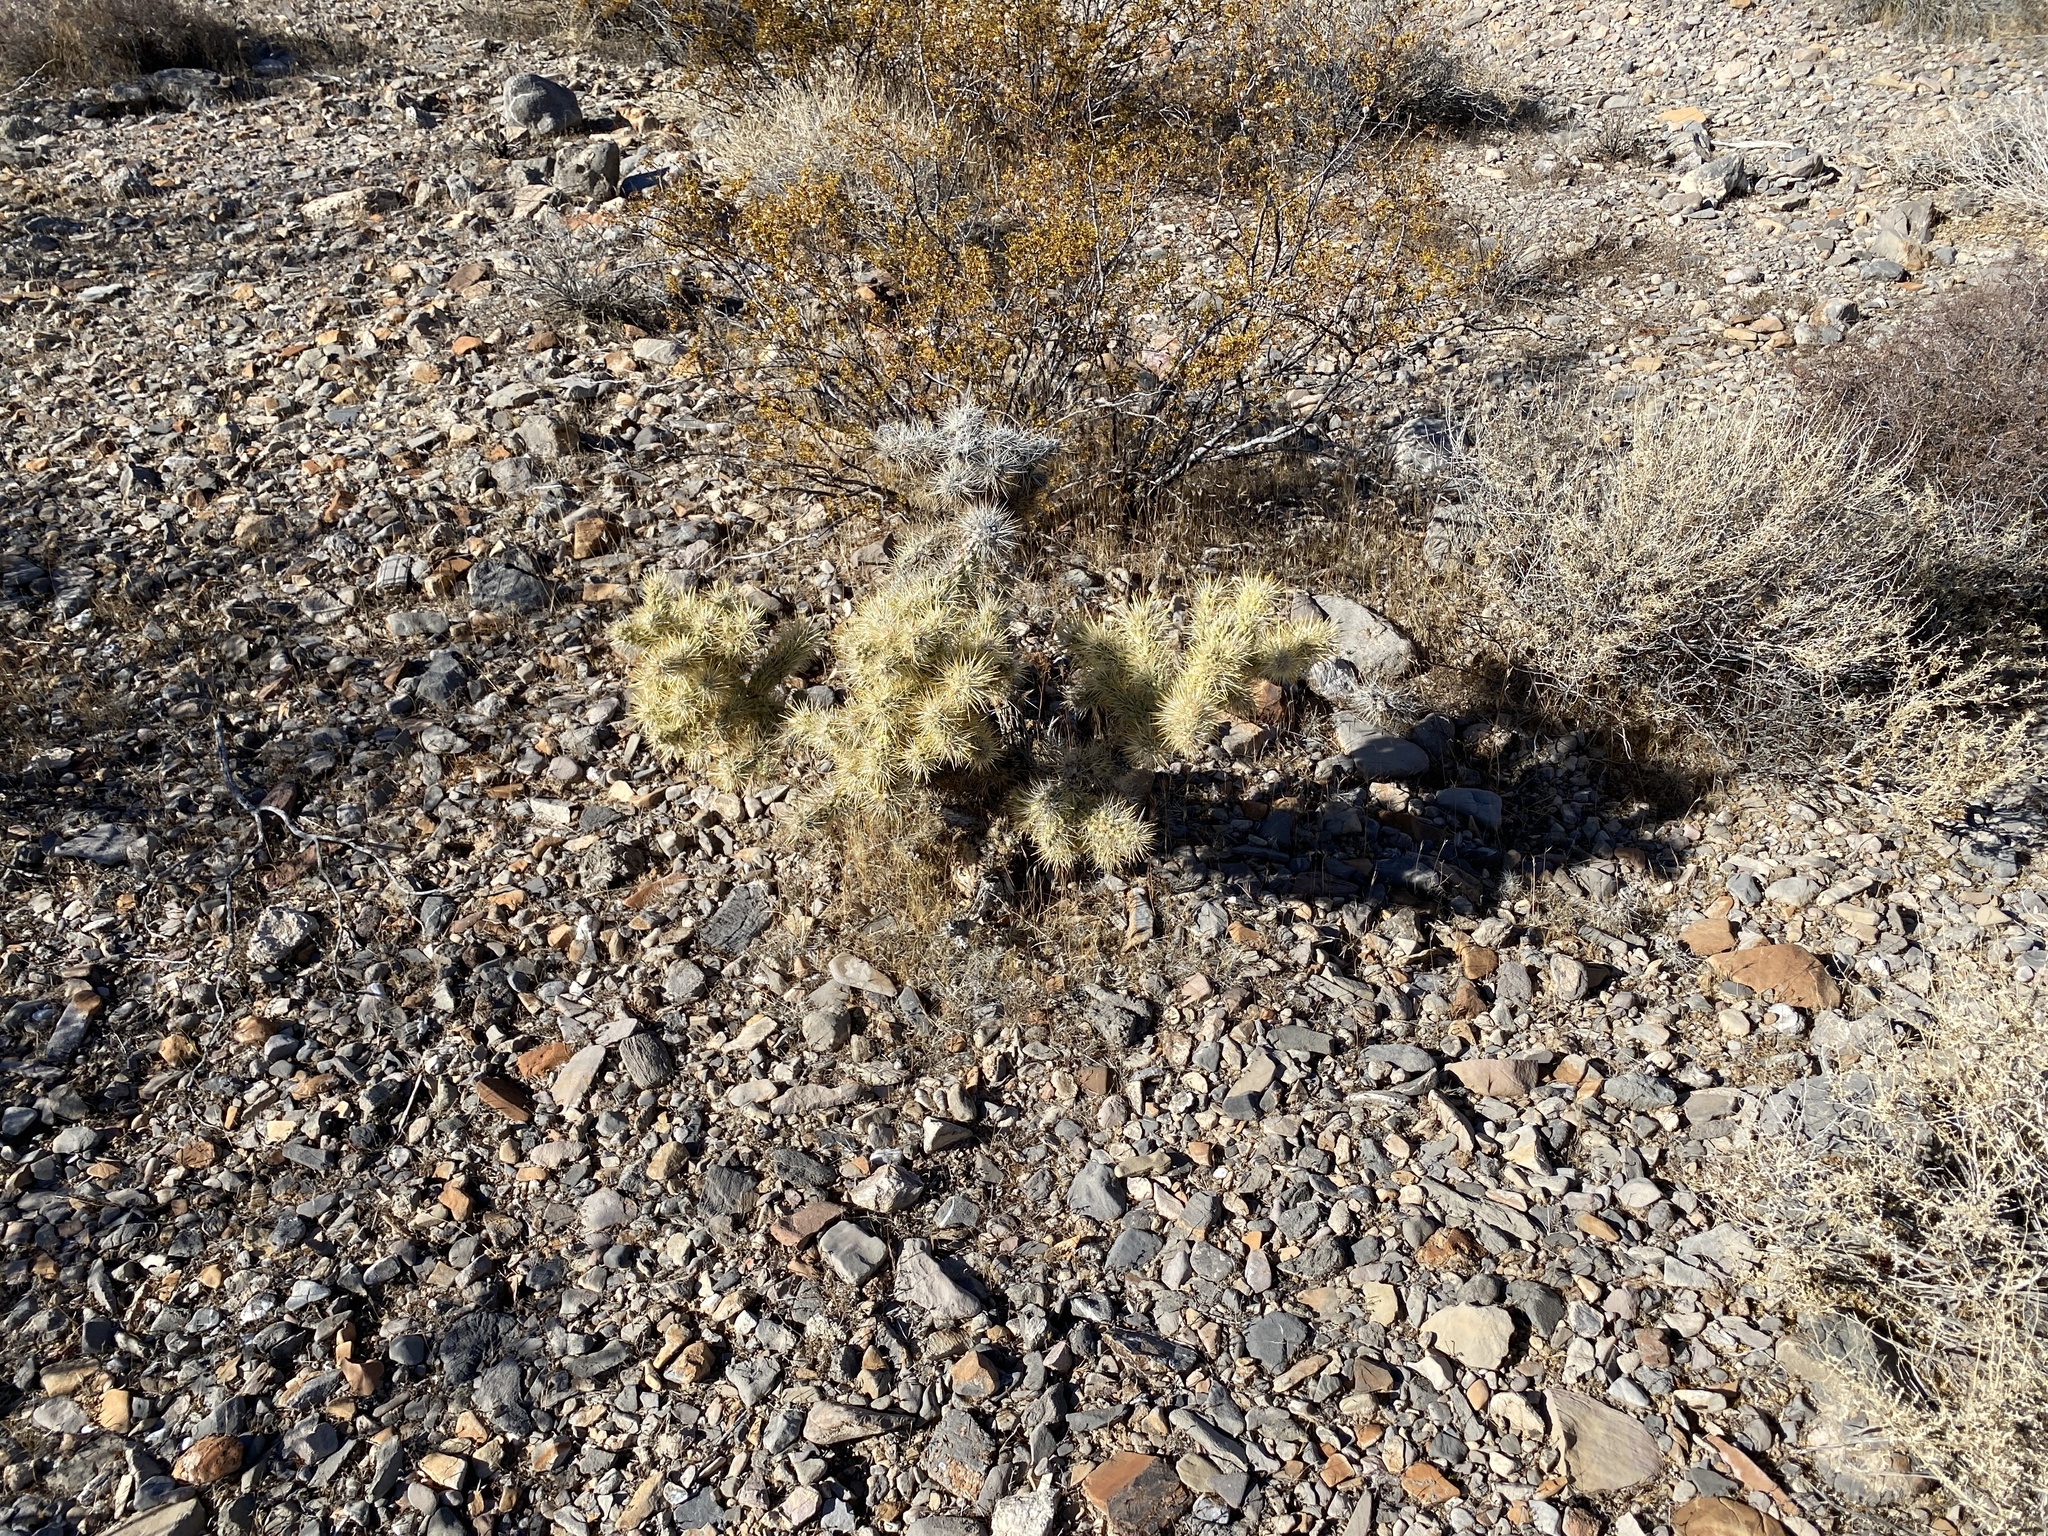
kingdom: Plantae
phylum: Tracheophyta
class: Magnoliopsida
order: Caryophyllales
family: Cactaceae
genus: Cylindropuntia
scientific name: Cylindropuntia echinocarpa
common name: Ground cholla
